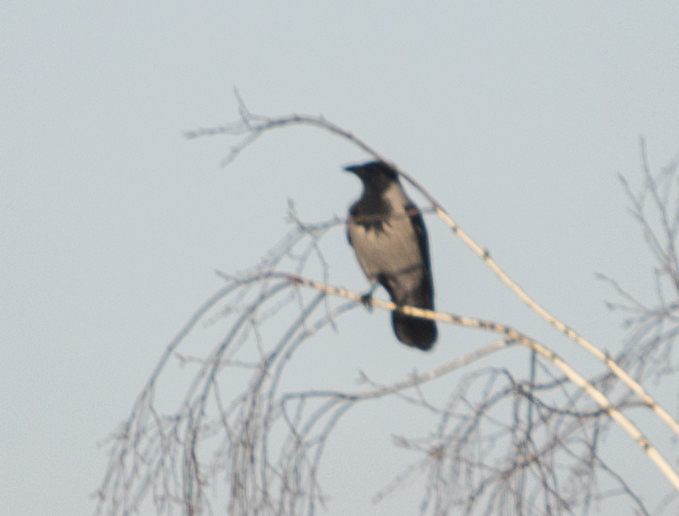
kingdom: Animalia
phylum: Chordata
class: Aves
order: Passeriformes
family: Corvidae
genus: Corvus
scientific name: Corvus cornix
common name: Hooded crow
